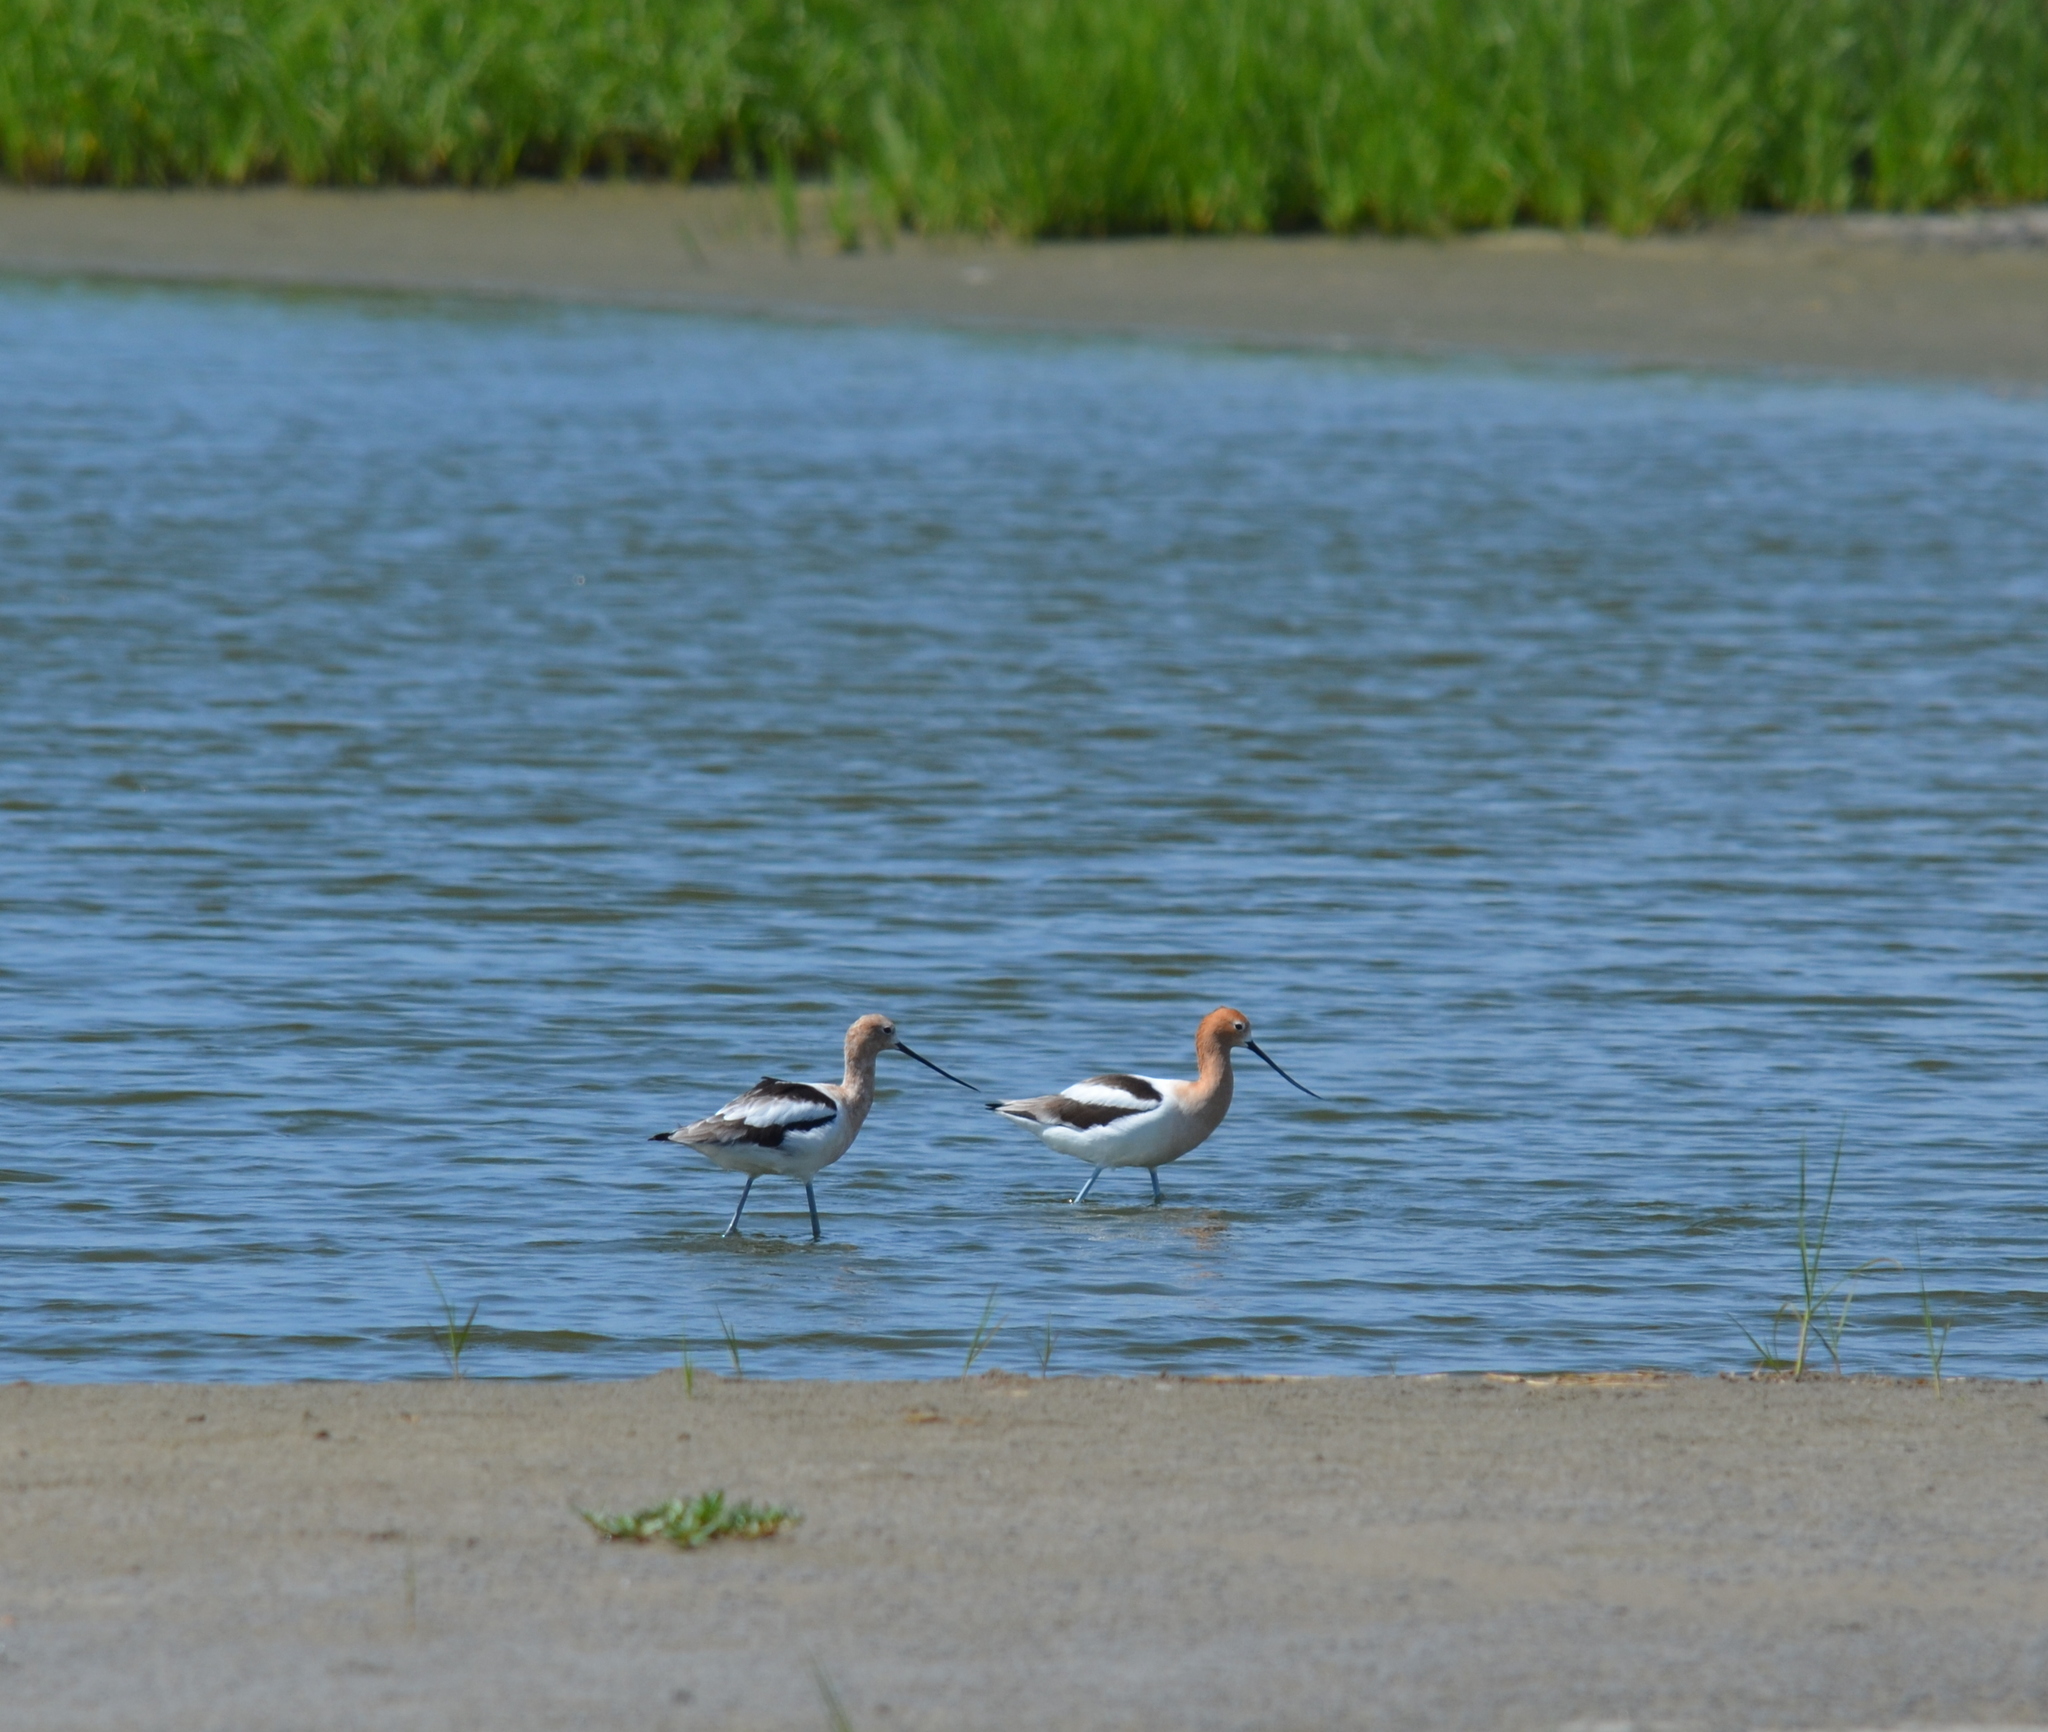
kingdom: Animalia
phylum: Chordata
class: Aves
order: Charadriiformes
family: Recurvirostridae
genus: Recurvirostra
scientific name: Recurvirostra americana
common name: American avocet
